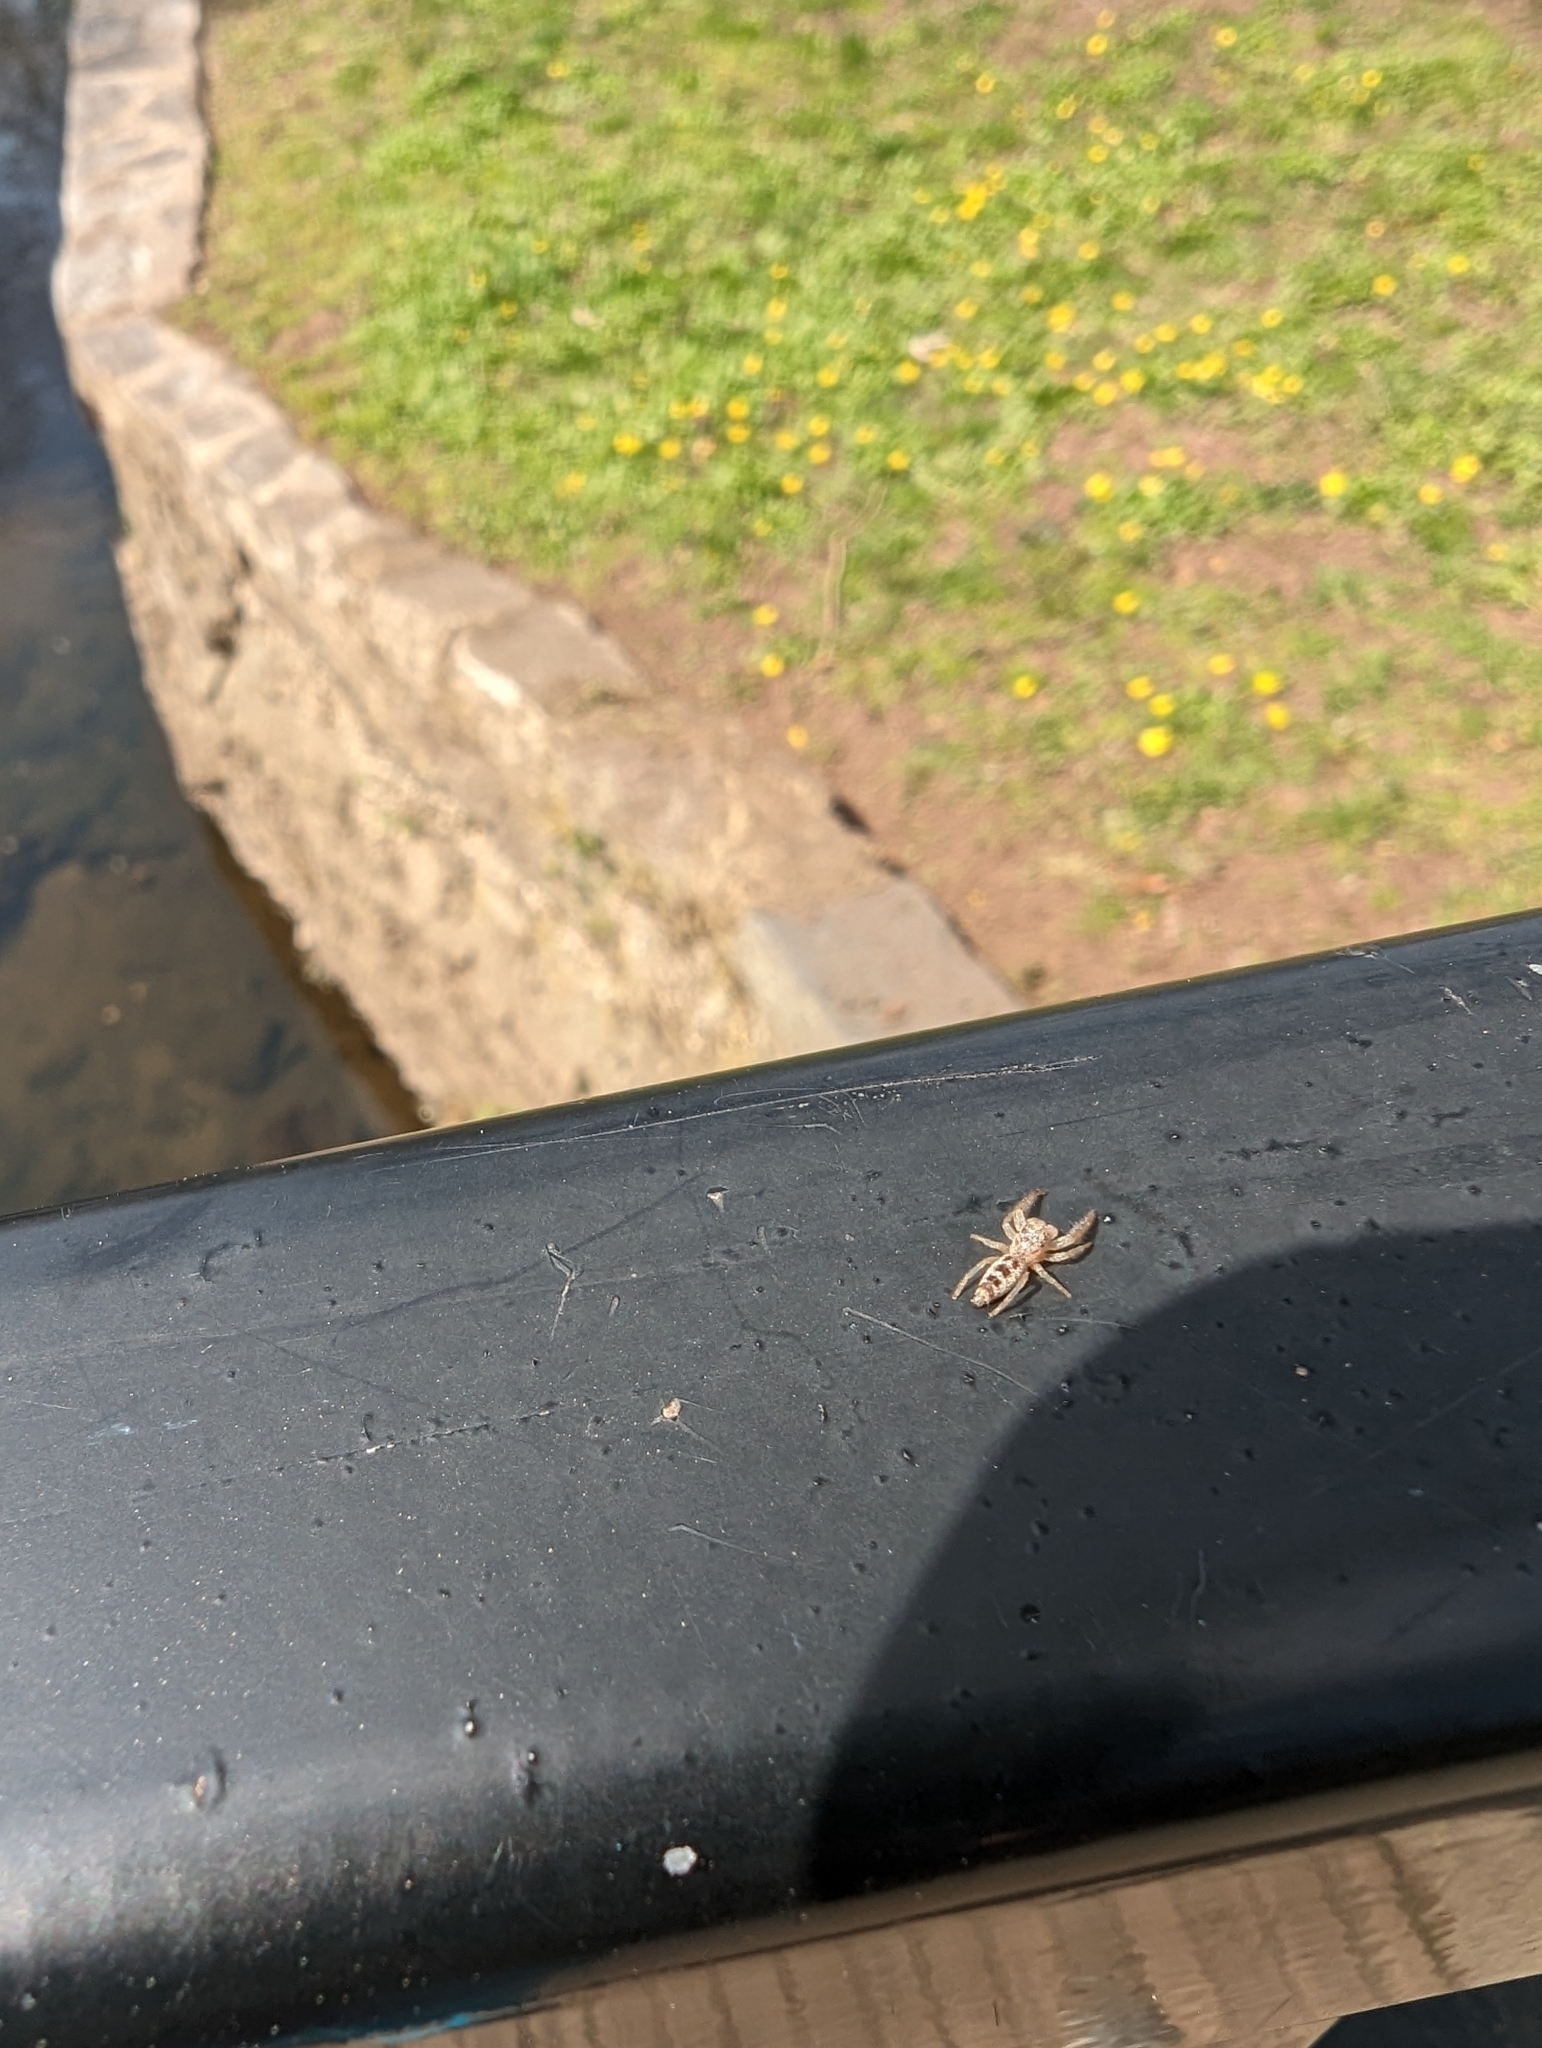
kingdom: Animalia
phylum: Arthropoda
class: Arachnida
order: Araneae
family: Salticidae
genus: Hentzia
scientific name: Hentzia mitrata
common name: White-jawed jumping spider
